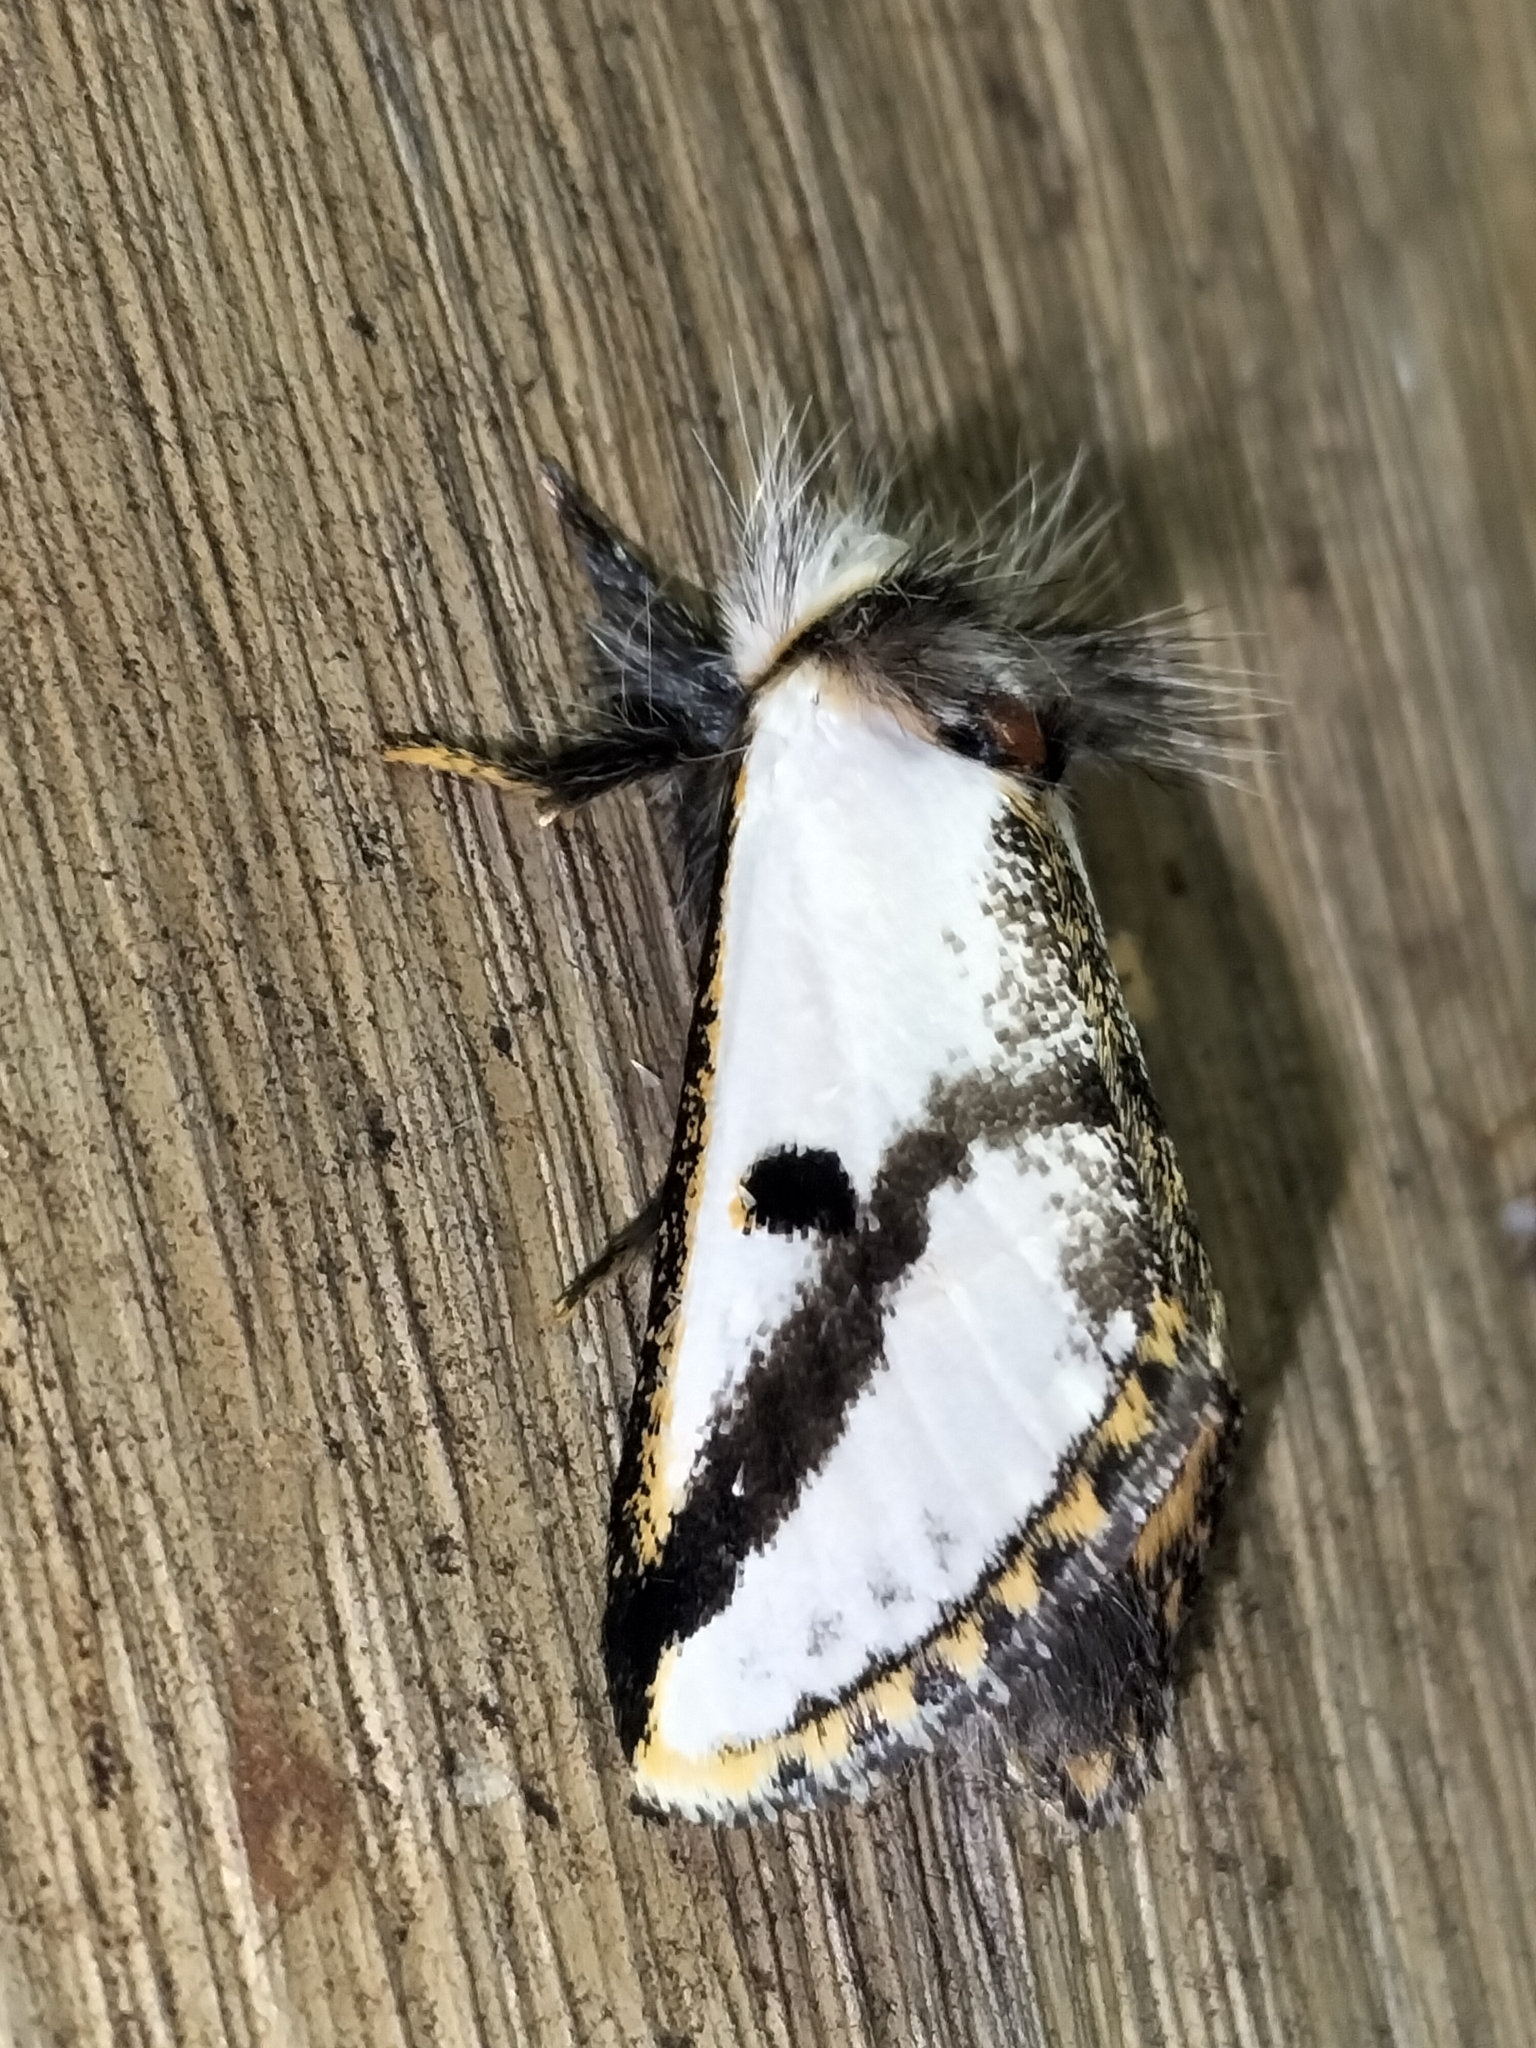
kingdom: Animalia
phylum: Arthropoda
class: Insecta
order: Lepidoptera
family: Notodontidae
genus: Epicoma
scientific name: Epicoma melanospila
